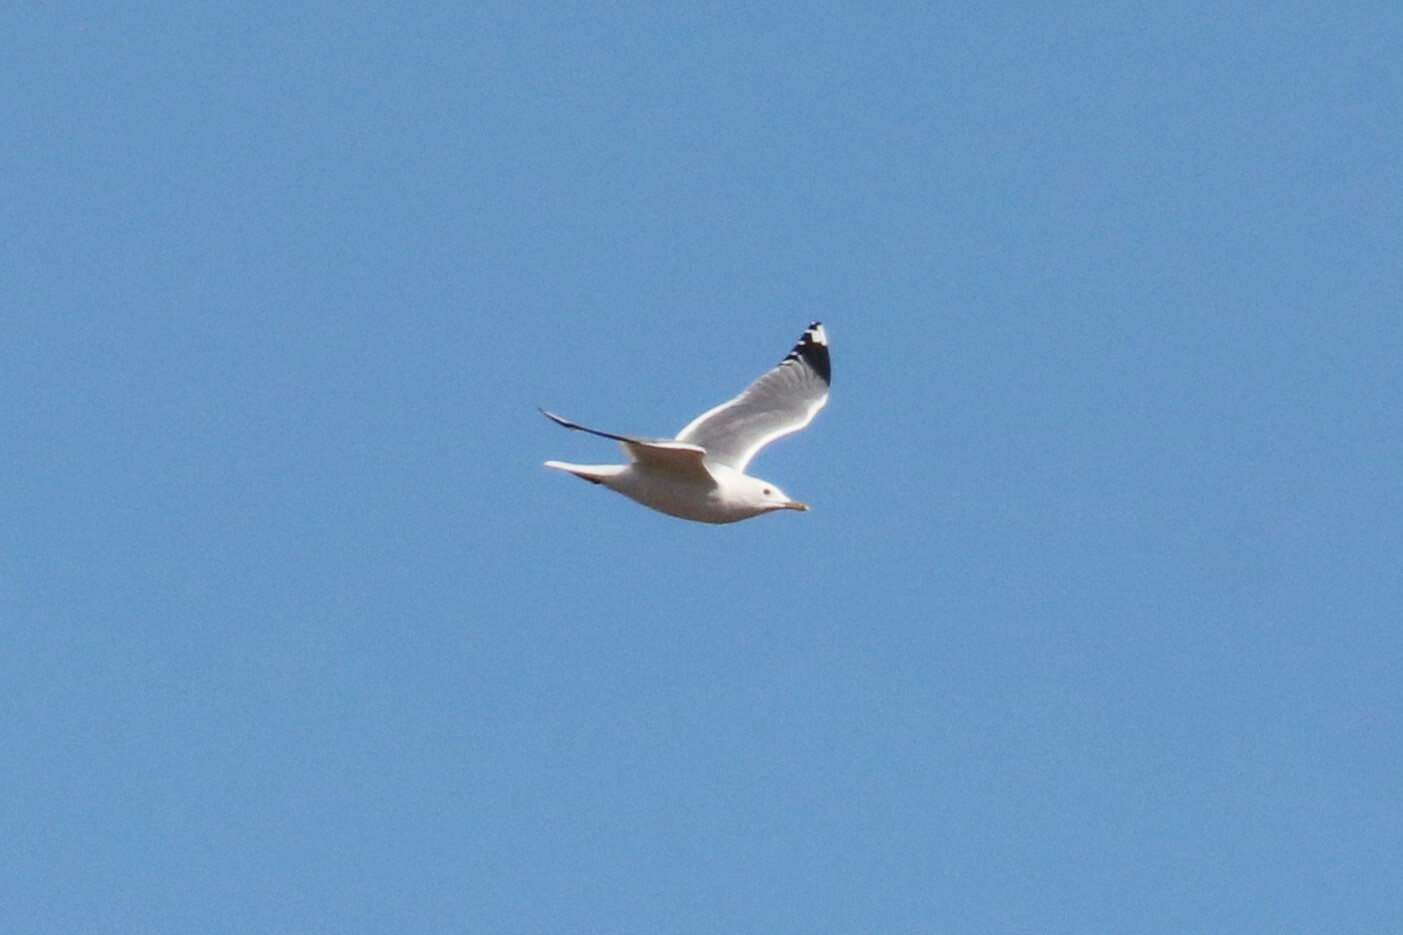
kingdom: Animalia
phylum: Chordata
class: Aves
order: Charadriiformes
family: Laridae
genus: Larus
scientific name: Larus canus
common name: Mew gull
